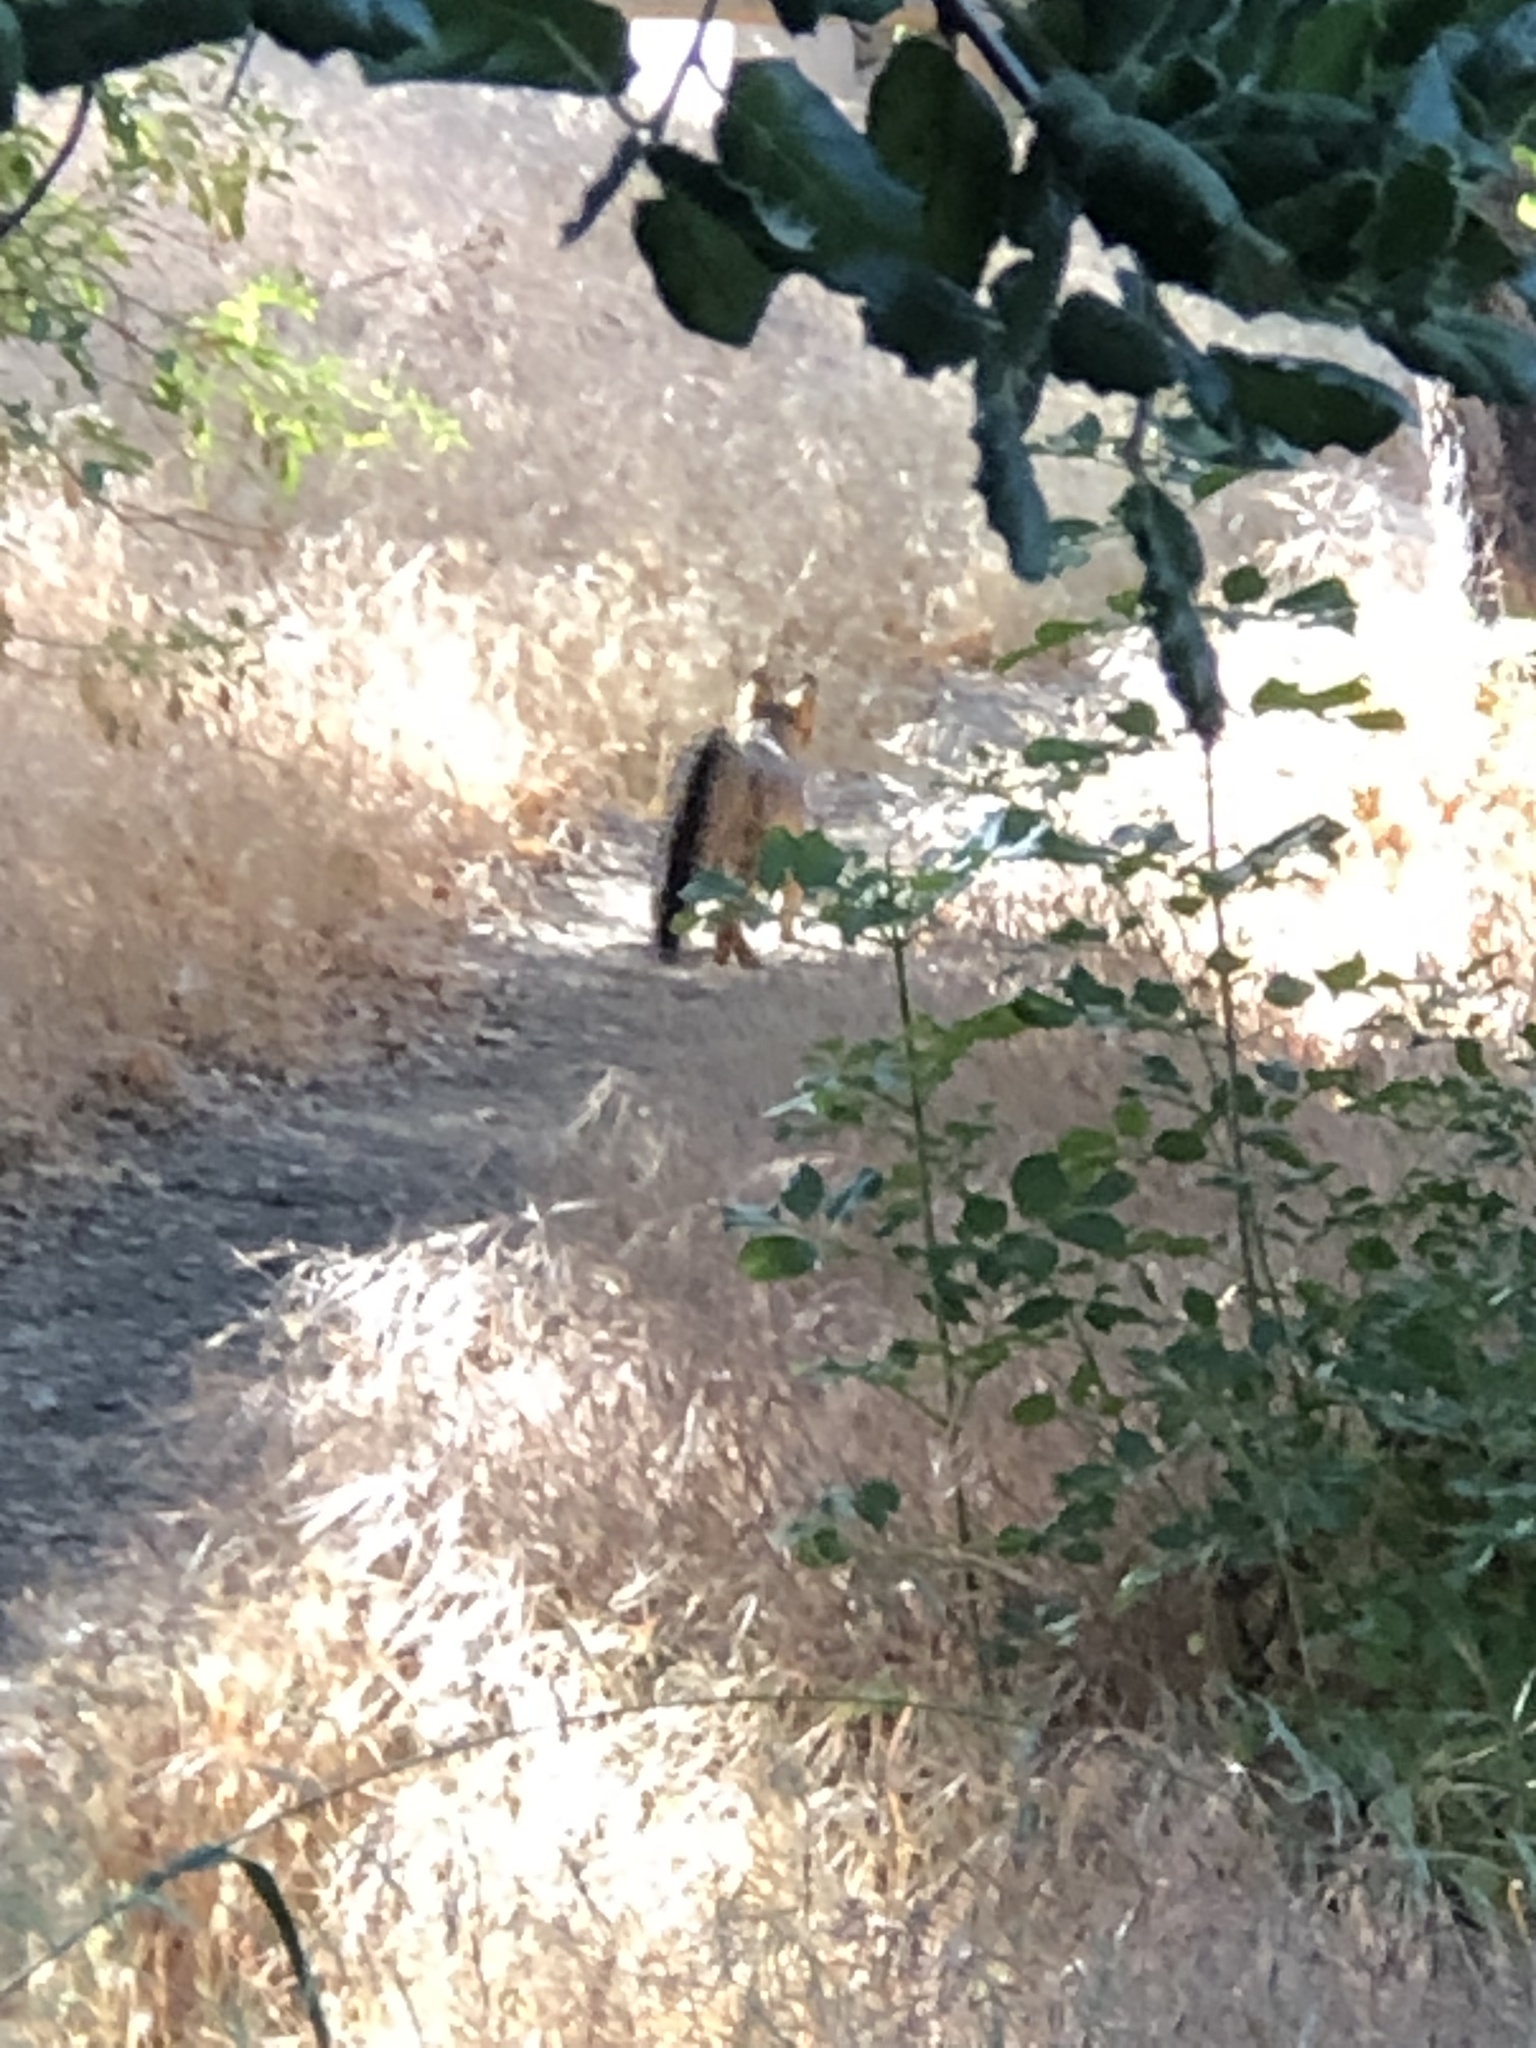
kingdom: Animalia
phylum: Chordata
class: Mammalia
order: Carnivora
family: Canidae
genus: Urocyon
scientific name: Urocyon cinereoargenteus
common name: Gray fox
